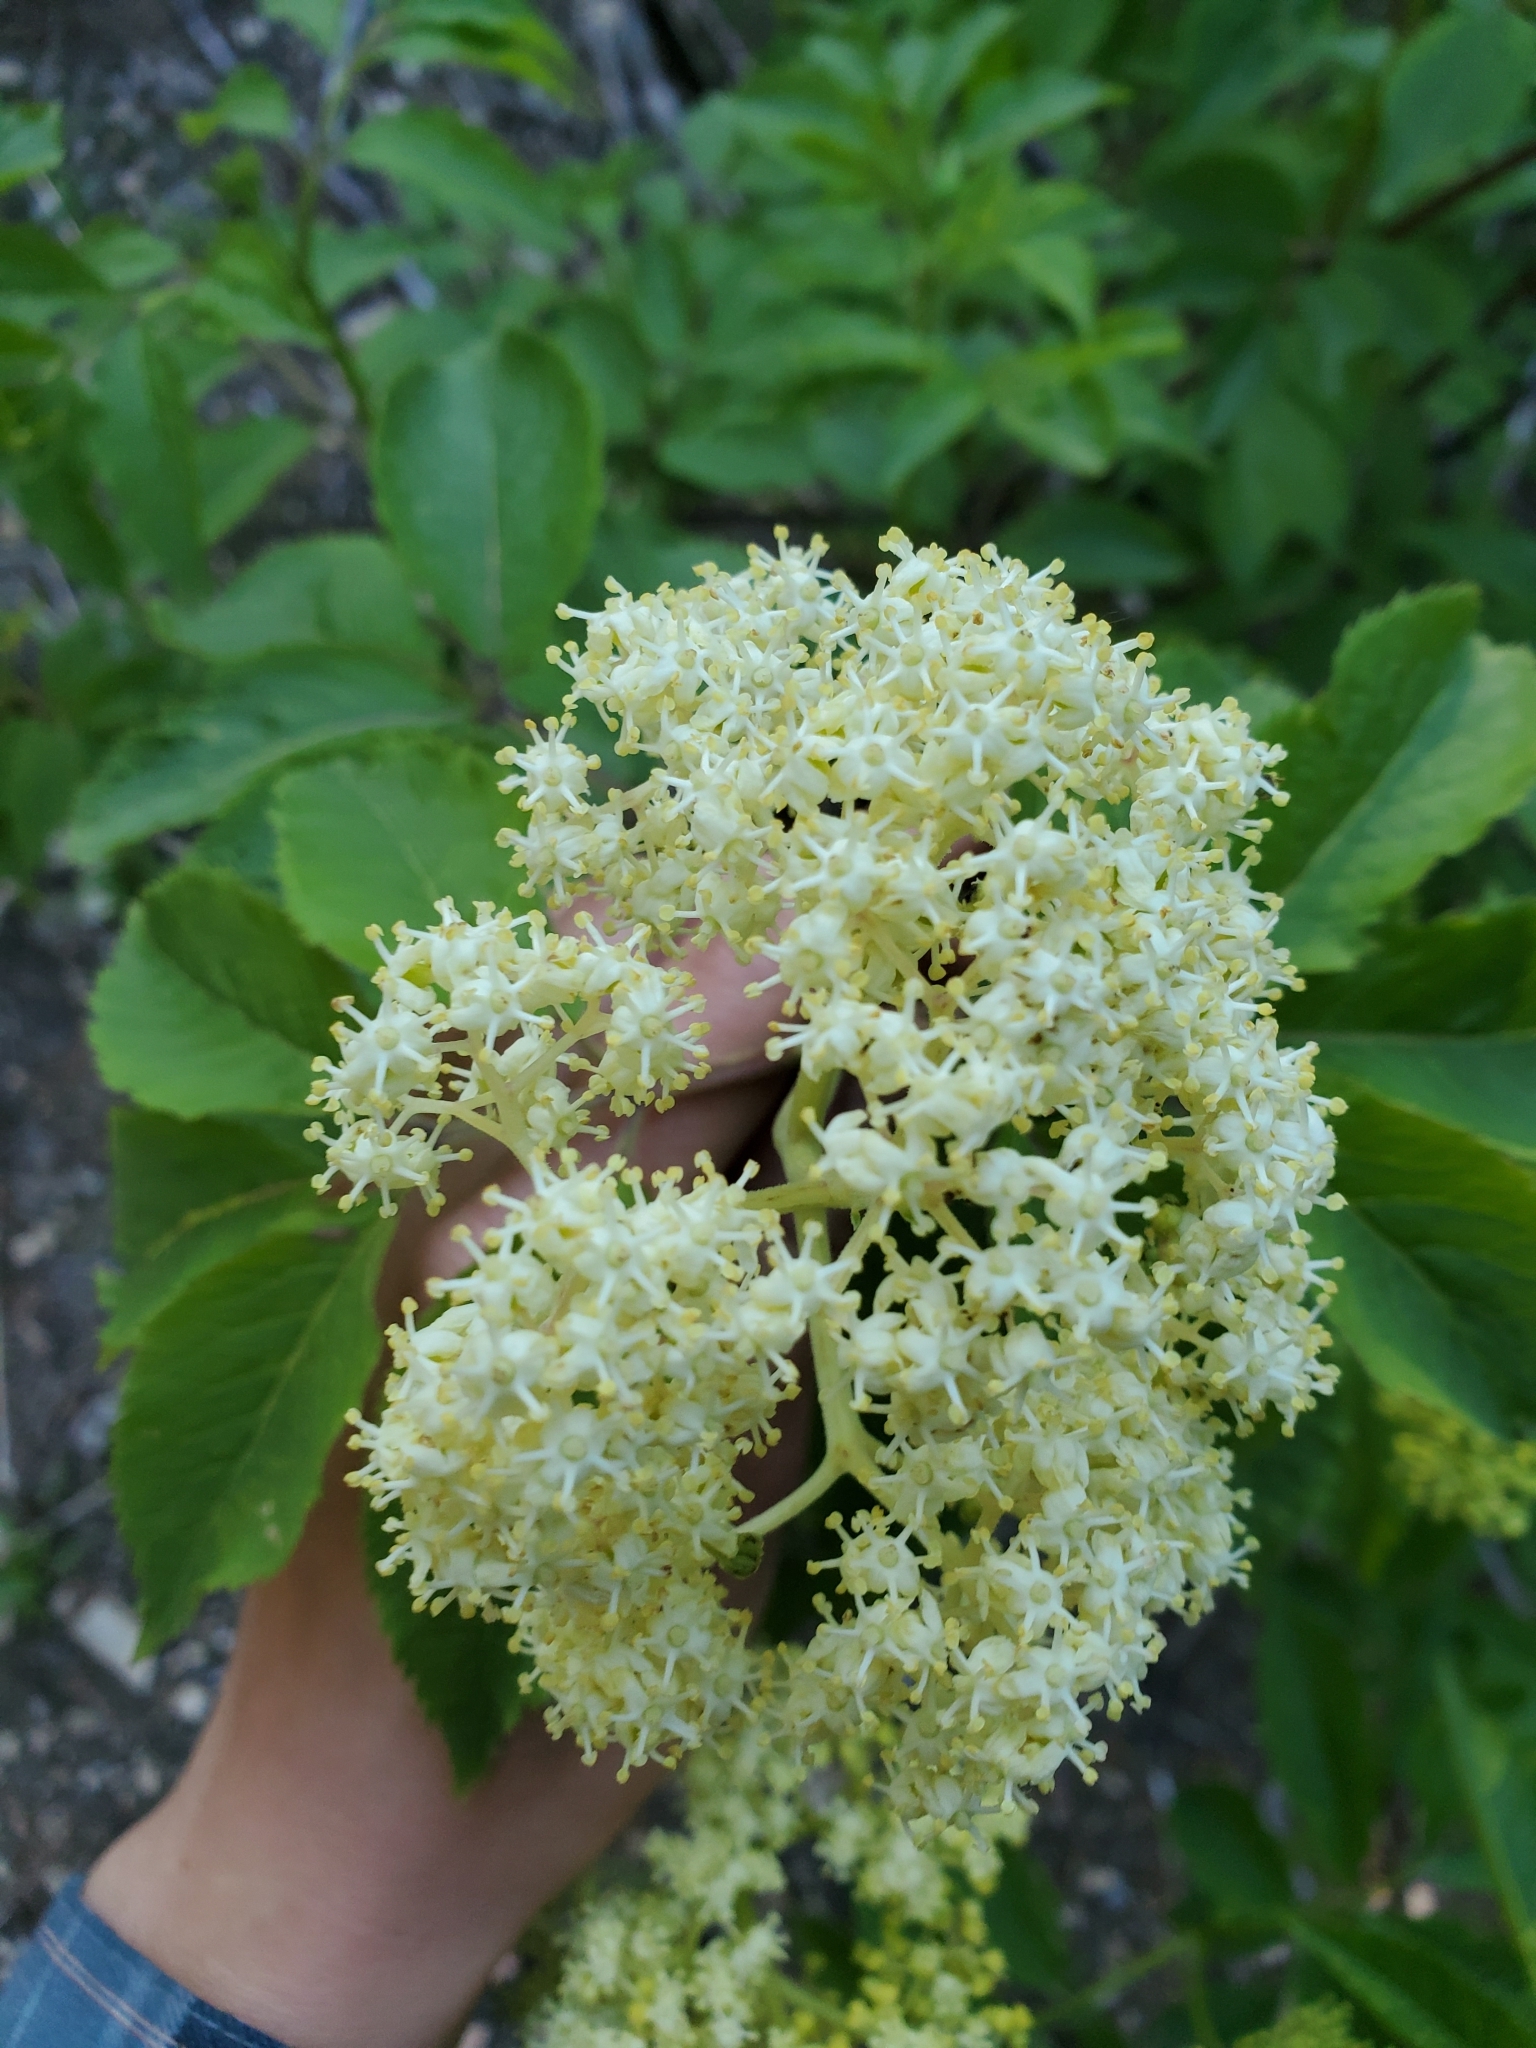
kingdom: Plantae
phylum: Tracheophyta
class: Magnoliopsida
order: Dipsacales
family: Viburnaceae
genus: Sambucus
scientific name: Sambucus racemosa
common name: Red-berried elder
